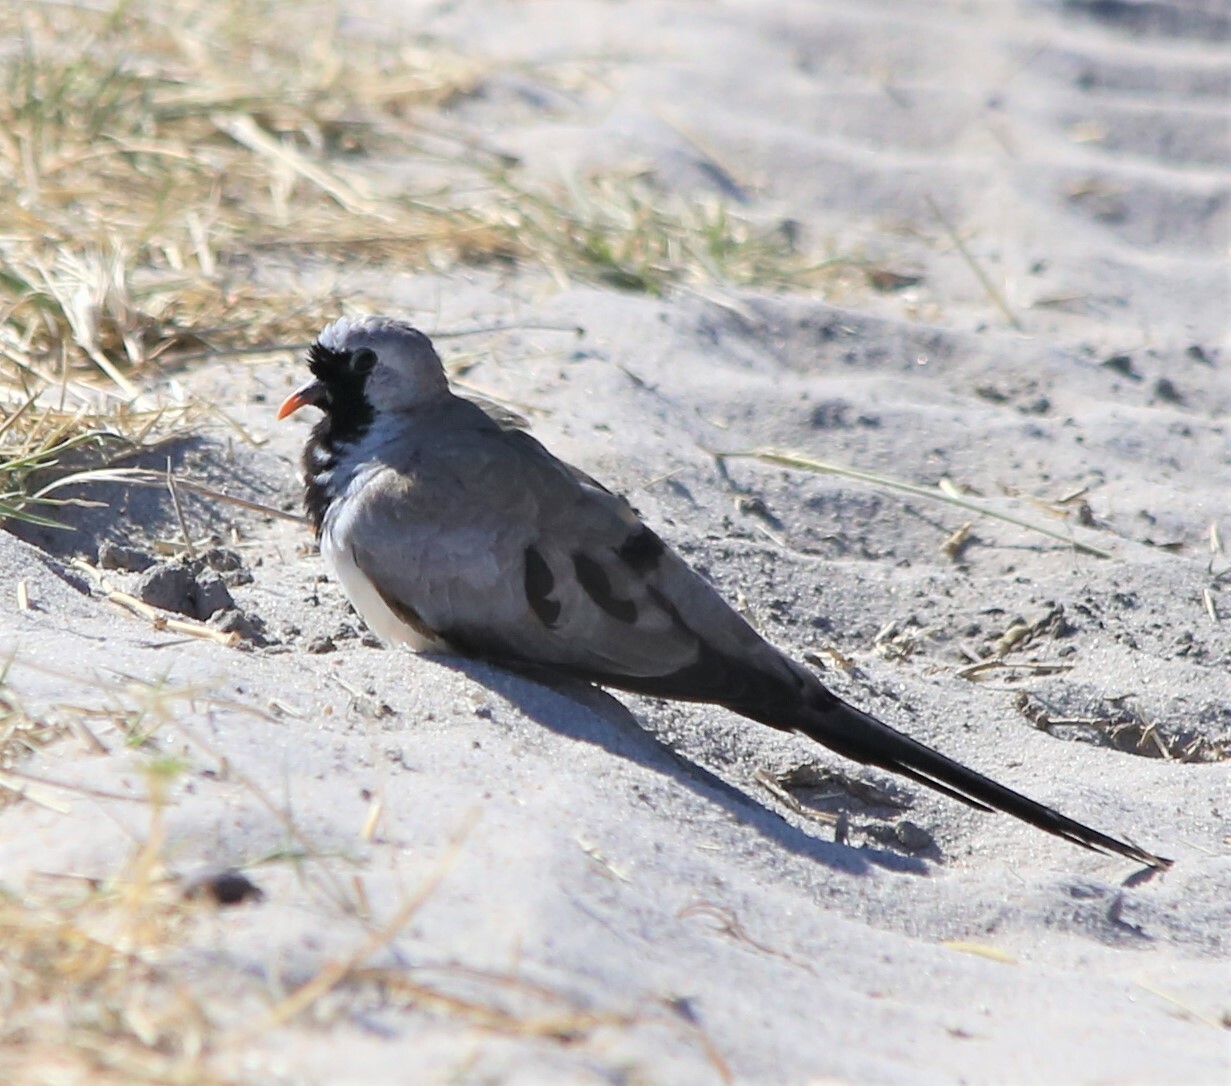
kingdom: Animalia
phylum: Chordata
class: Aves
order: Columbiformes
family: Columbidae
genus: Oena
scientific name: Oena capensis
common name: Namaqua dove
